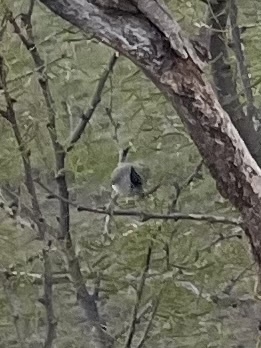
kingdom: Animalia
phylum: Chordata
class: Aves
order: Passeriformes
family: Paridae
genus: Baeolophus
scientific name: Baeolophus atricristatus
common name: Black-crested titmouse
